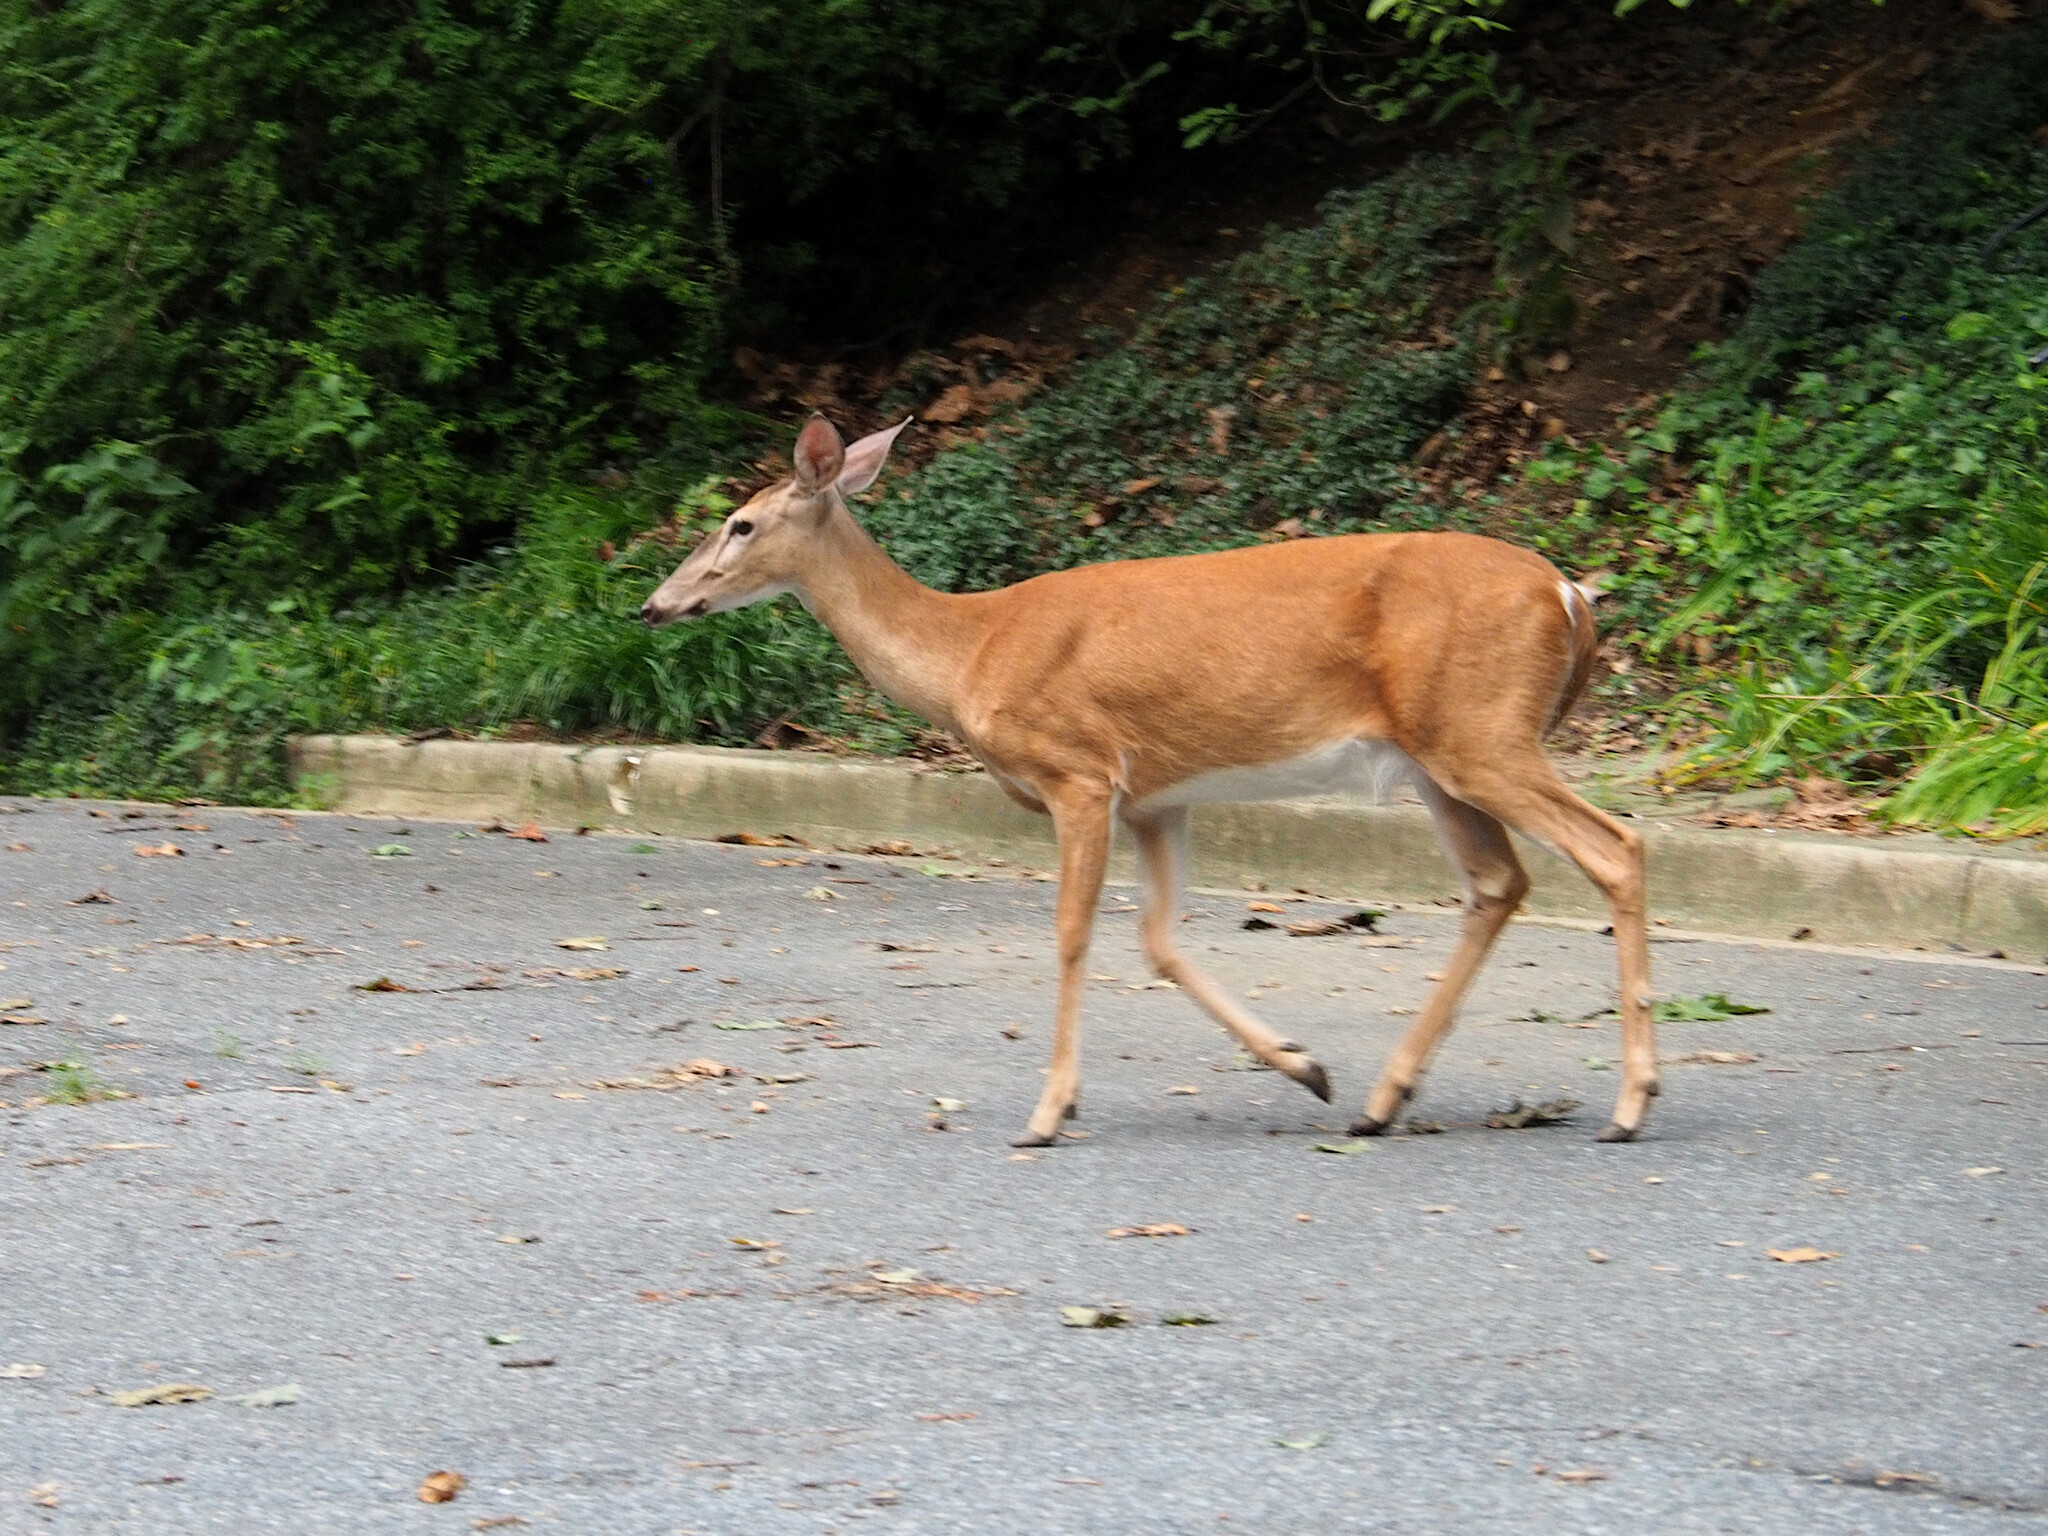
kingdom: Animalia
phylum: Chordata
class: Mammalia
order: Artiodactyla
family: Cervidae
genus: Odocoileus
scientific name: Odocoileus virginianus
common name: White-tailed deer
